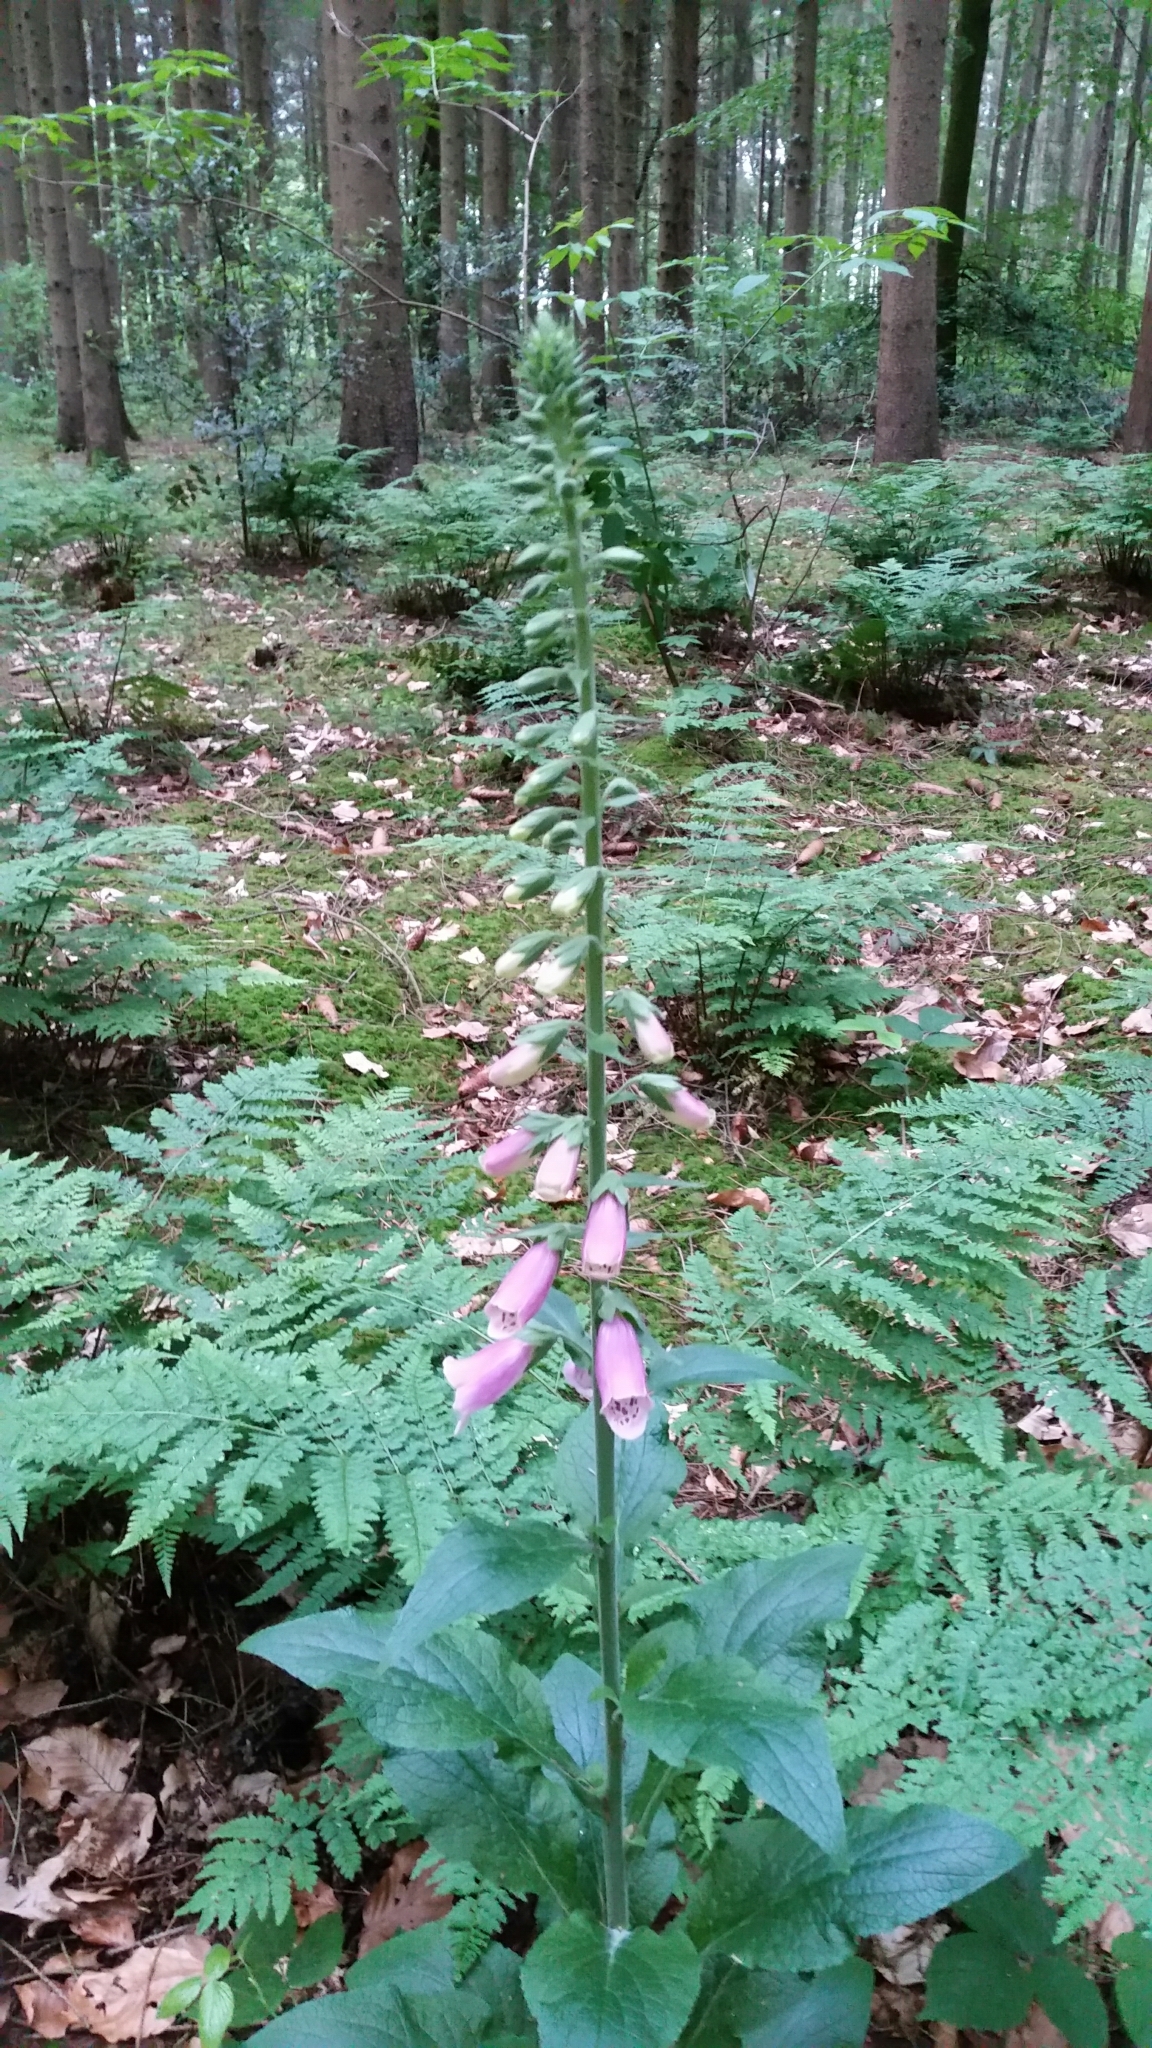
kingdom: Plantae
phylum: Tracheophyta
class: Magnoliopsida
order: Lamiales
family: Plantaginaceae
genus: Digitalis
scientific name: Digitalis purpurea
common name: Foxglove
